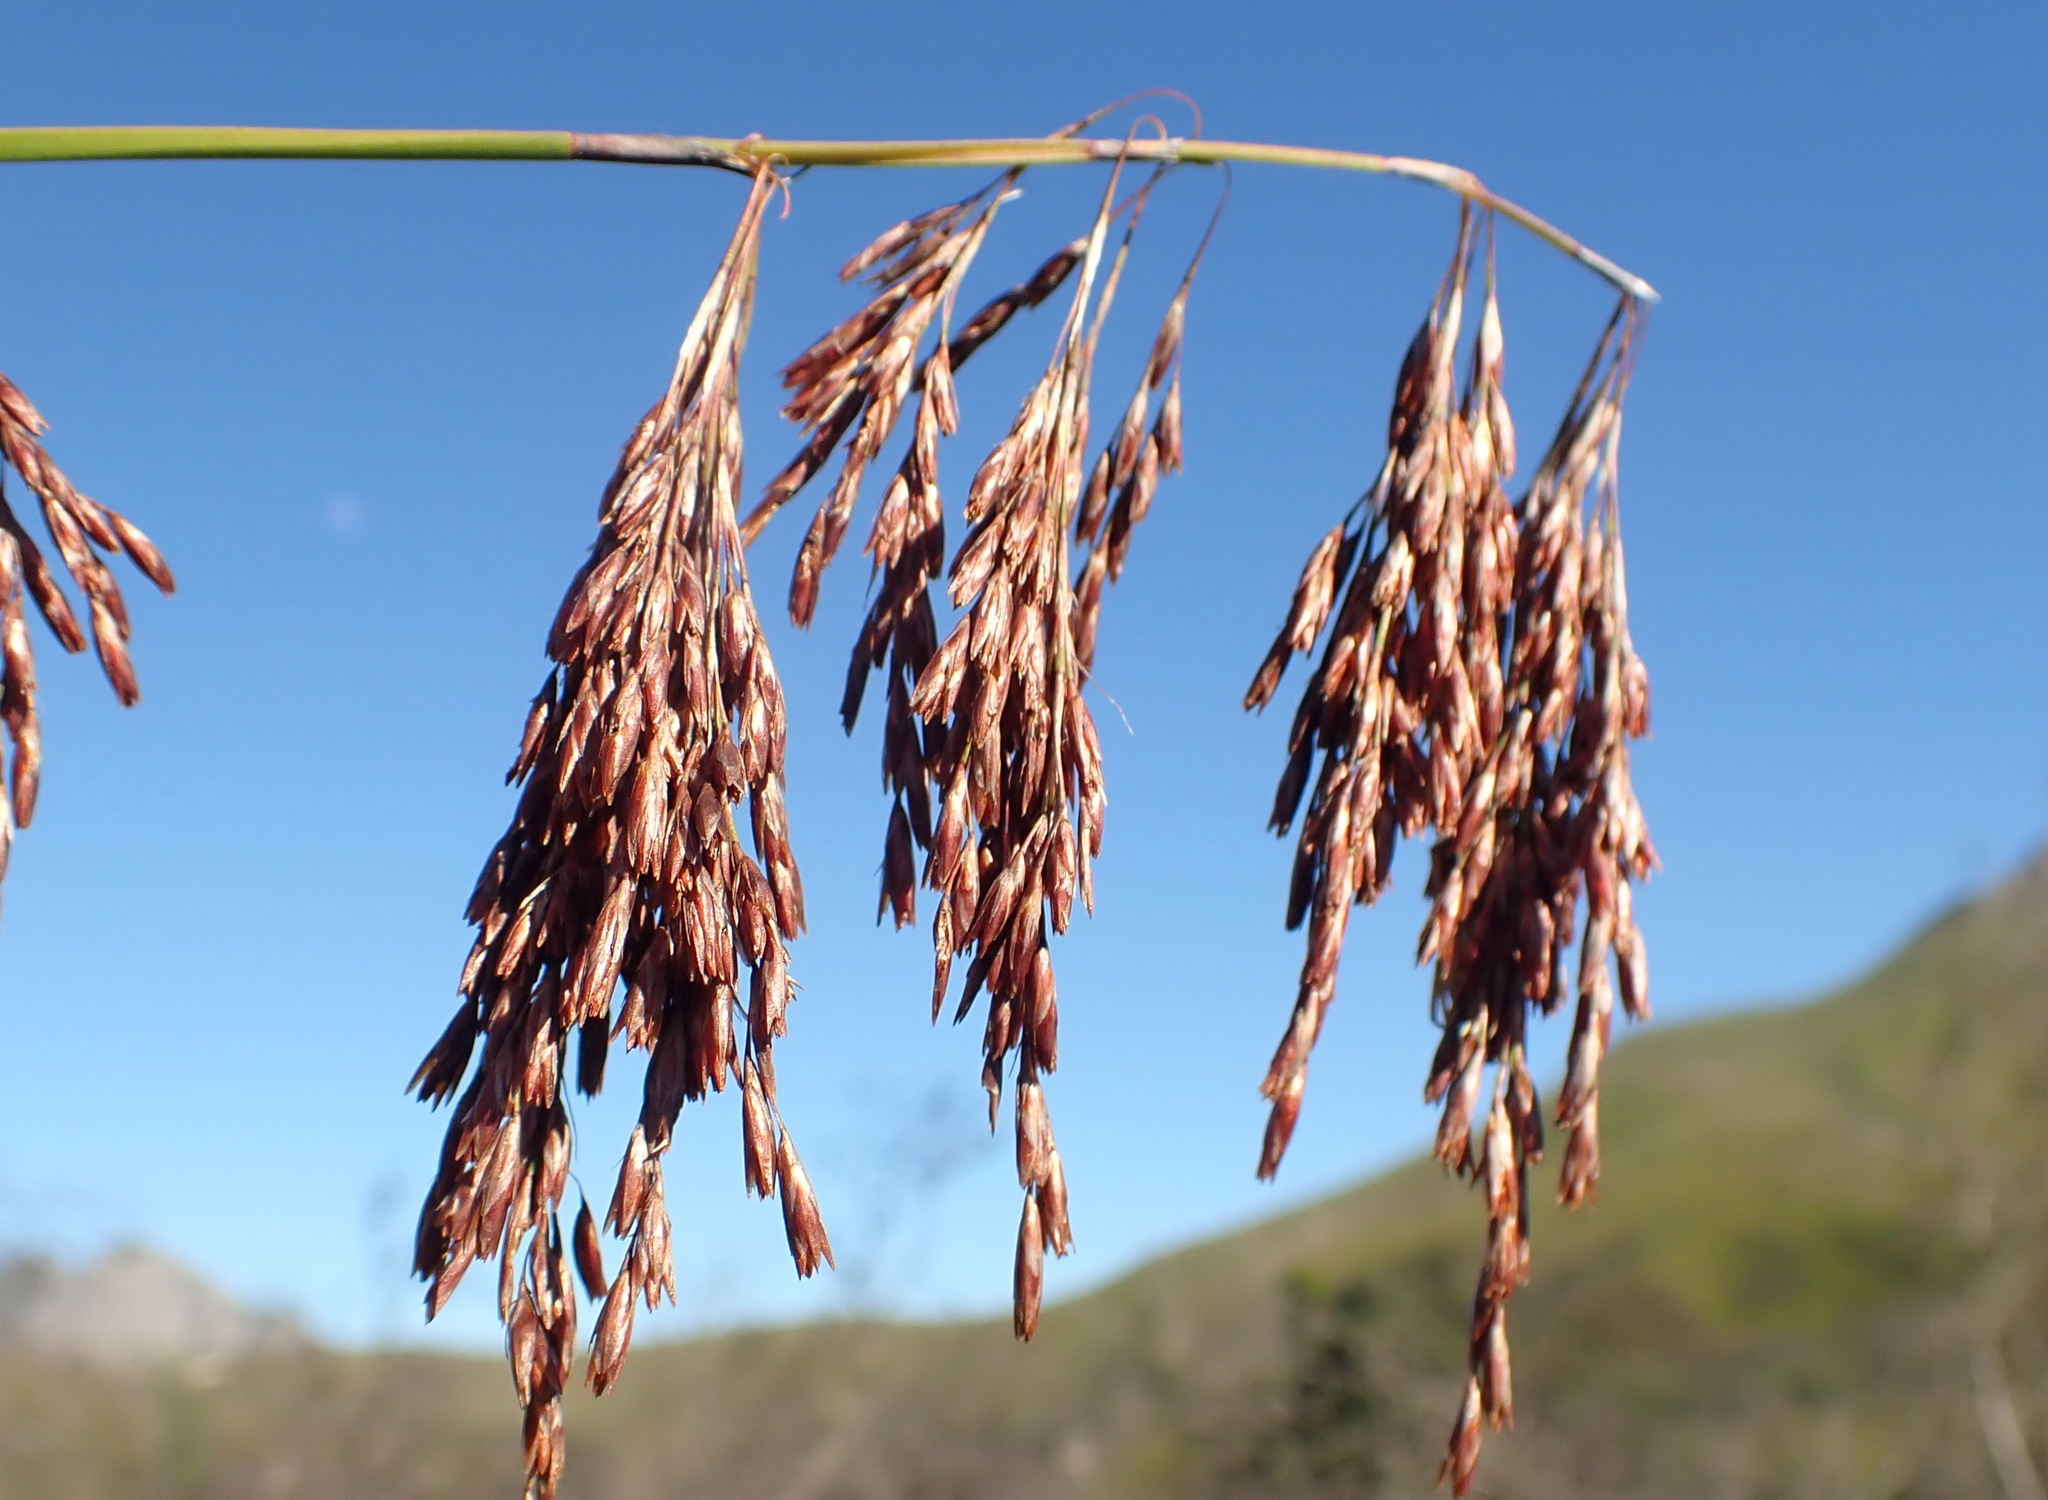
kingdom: Plantae
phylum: Tracheophyta
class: Liliopsida
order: Poales
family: Restionaceae
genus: Thamnochortus
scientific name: Thamnochortus cinereus
